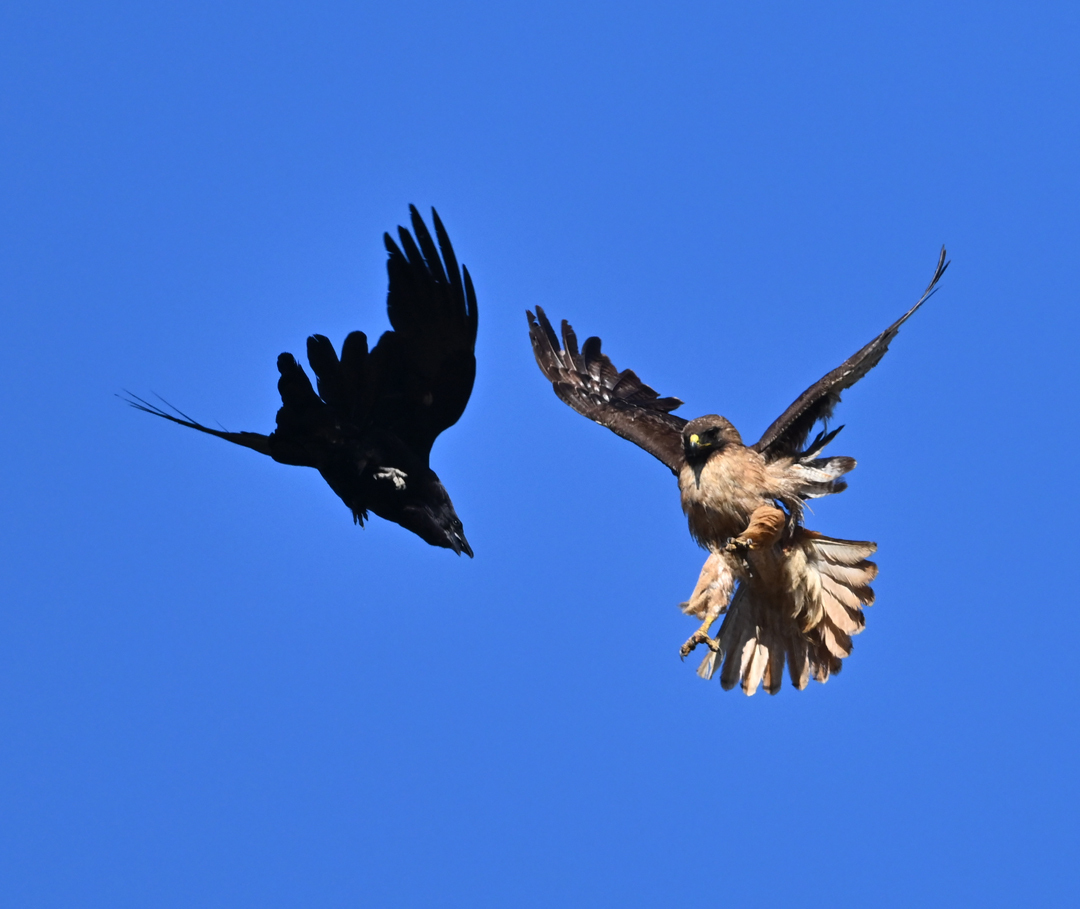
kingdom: Animalia
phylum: Chordata
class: Aves
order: Accipitriformes
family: Accipitridae
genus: Buteo
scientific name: Buteo jamaicensis
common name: Red-tailed hawk
